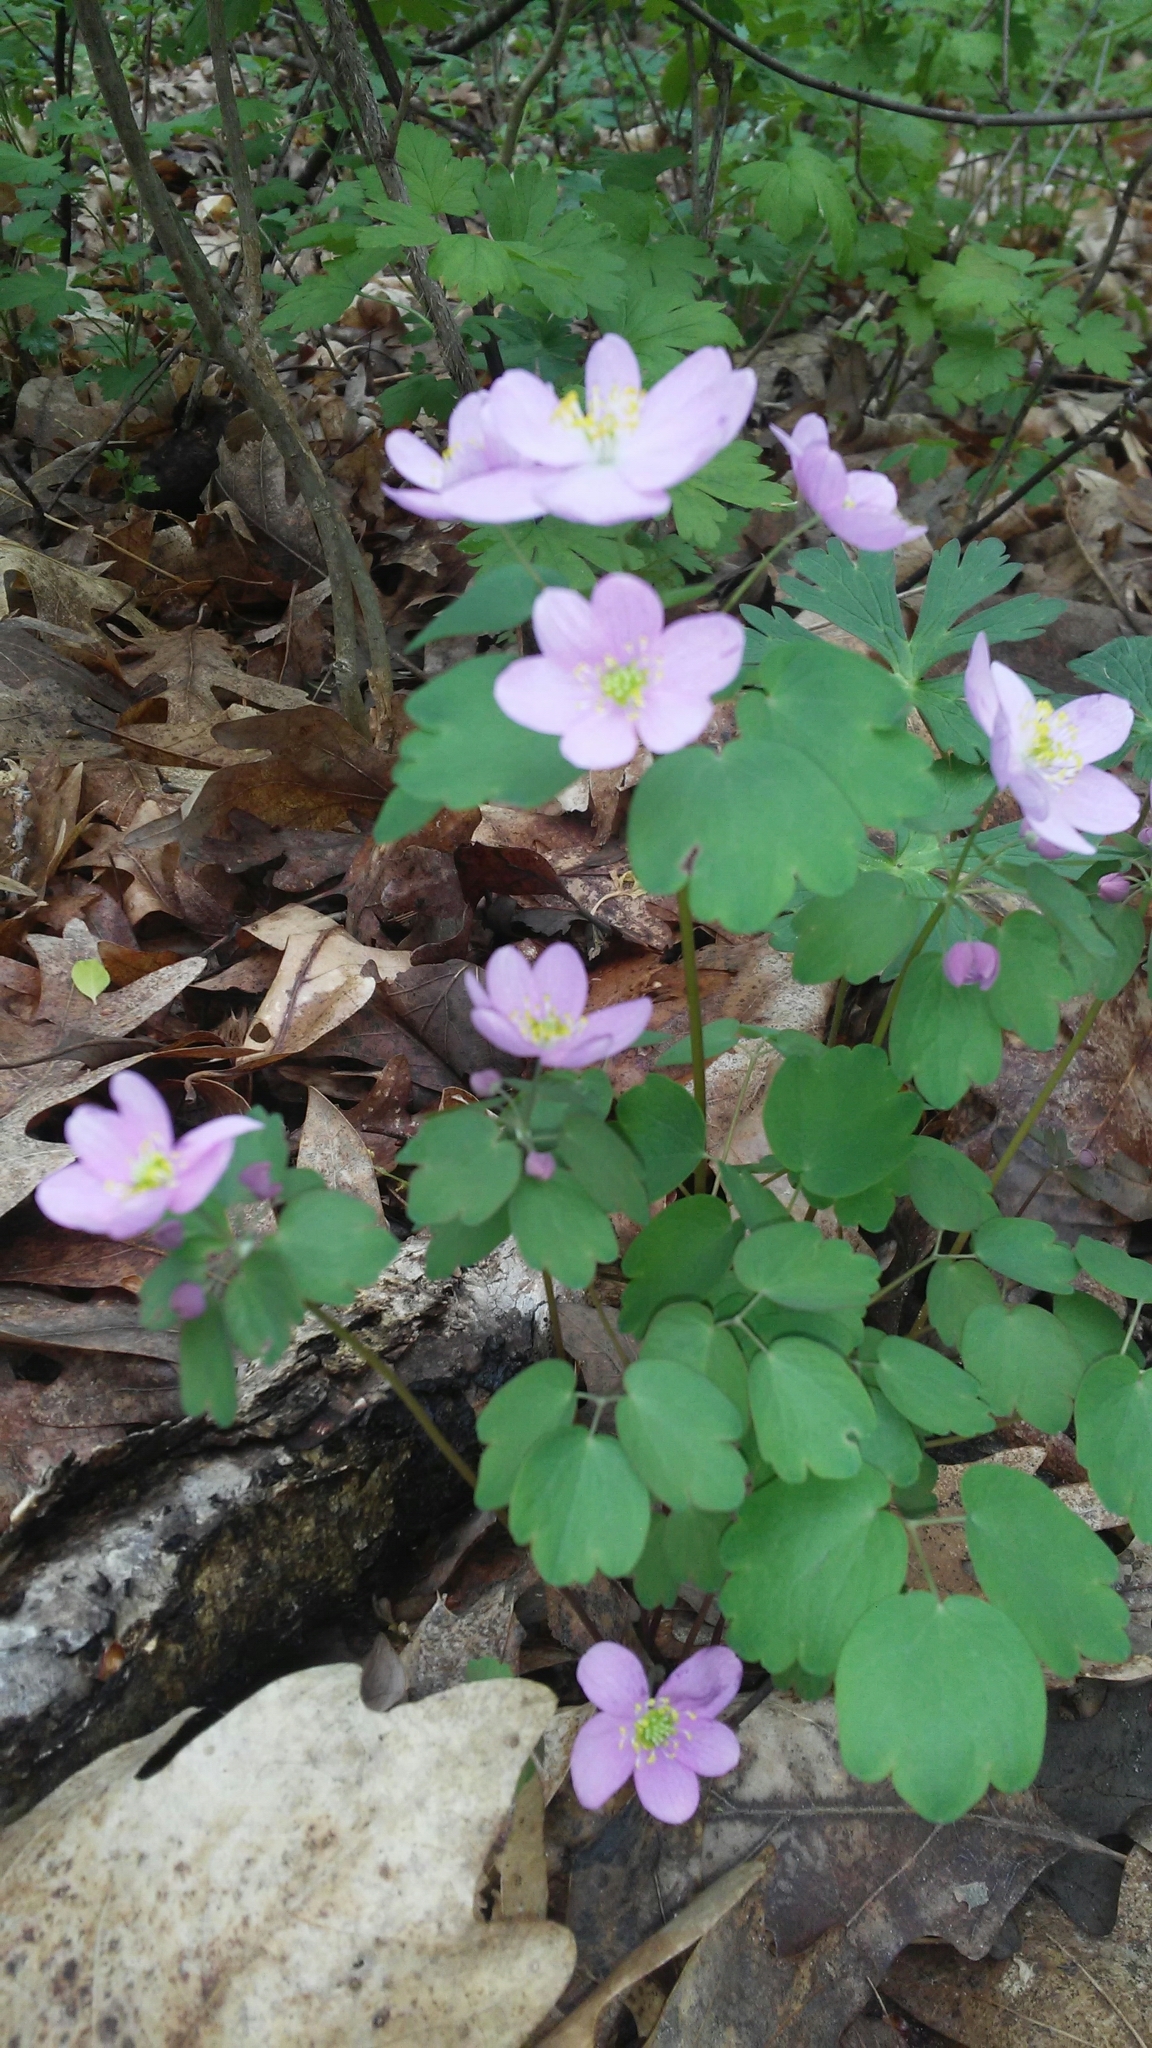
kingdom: Plantae
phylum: Tracheophyta
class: Magnoliopsida
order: Ranunculales
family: Ranunculaceae
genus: Thalictrum
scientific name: Thalictrum thalictroides
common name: Rue-anemone
